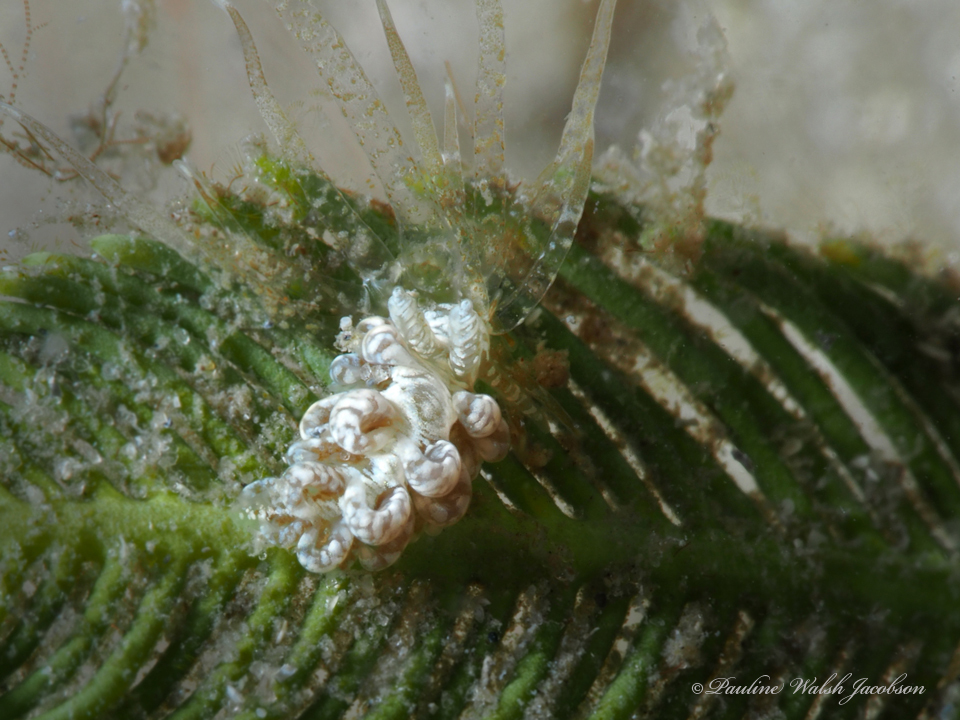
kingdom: Animalia
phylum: Mollusca
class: Gastropoda
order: Nudibranchia
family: Aeolidiidae
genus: Spurilla
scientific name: Spurilla sargassicola
